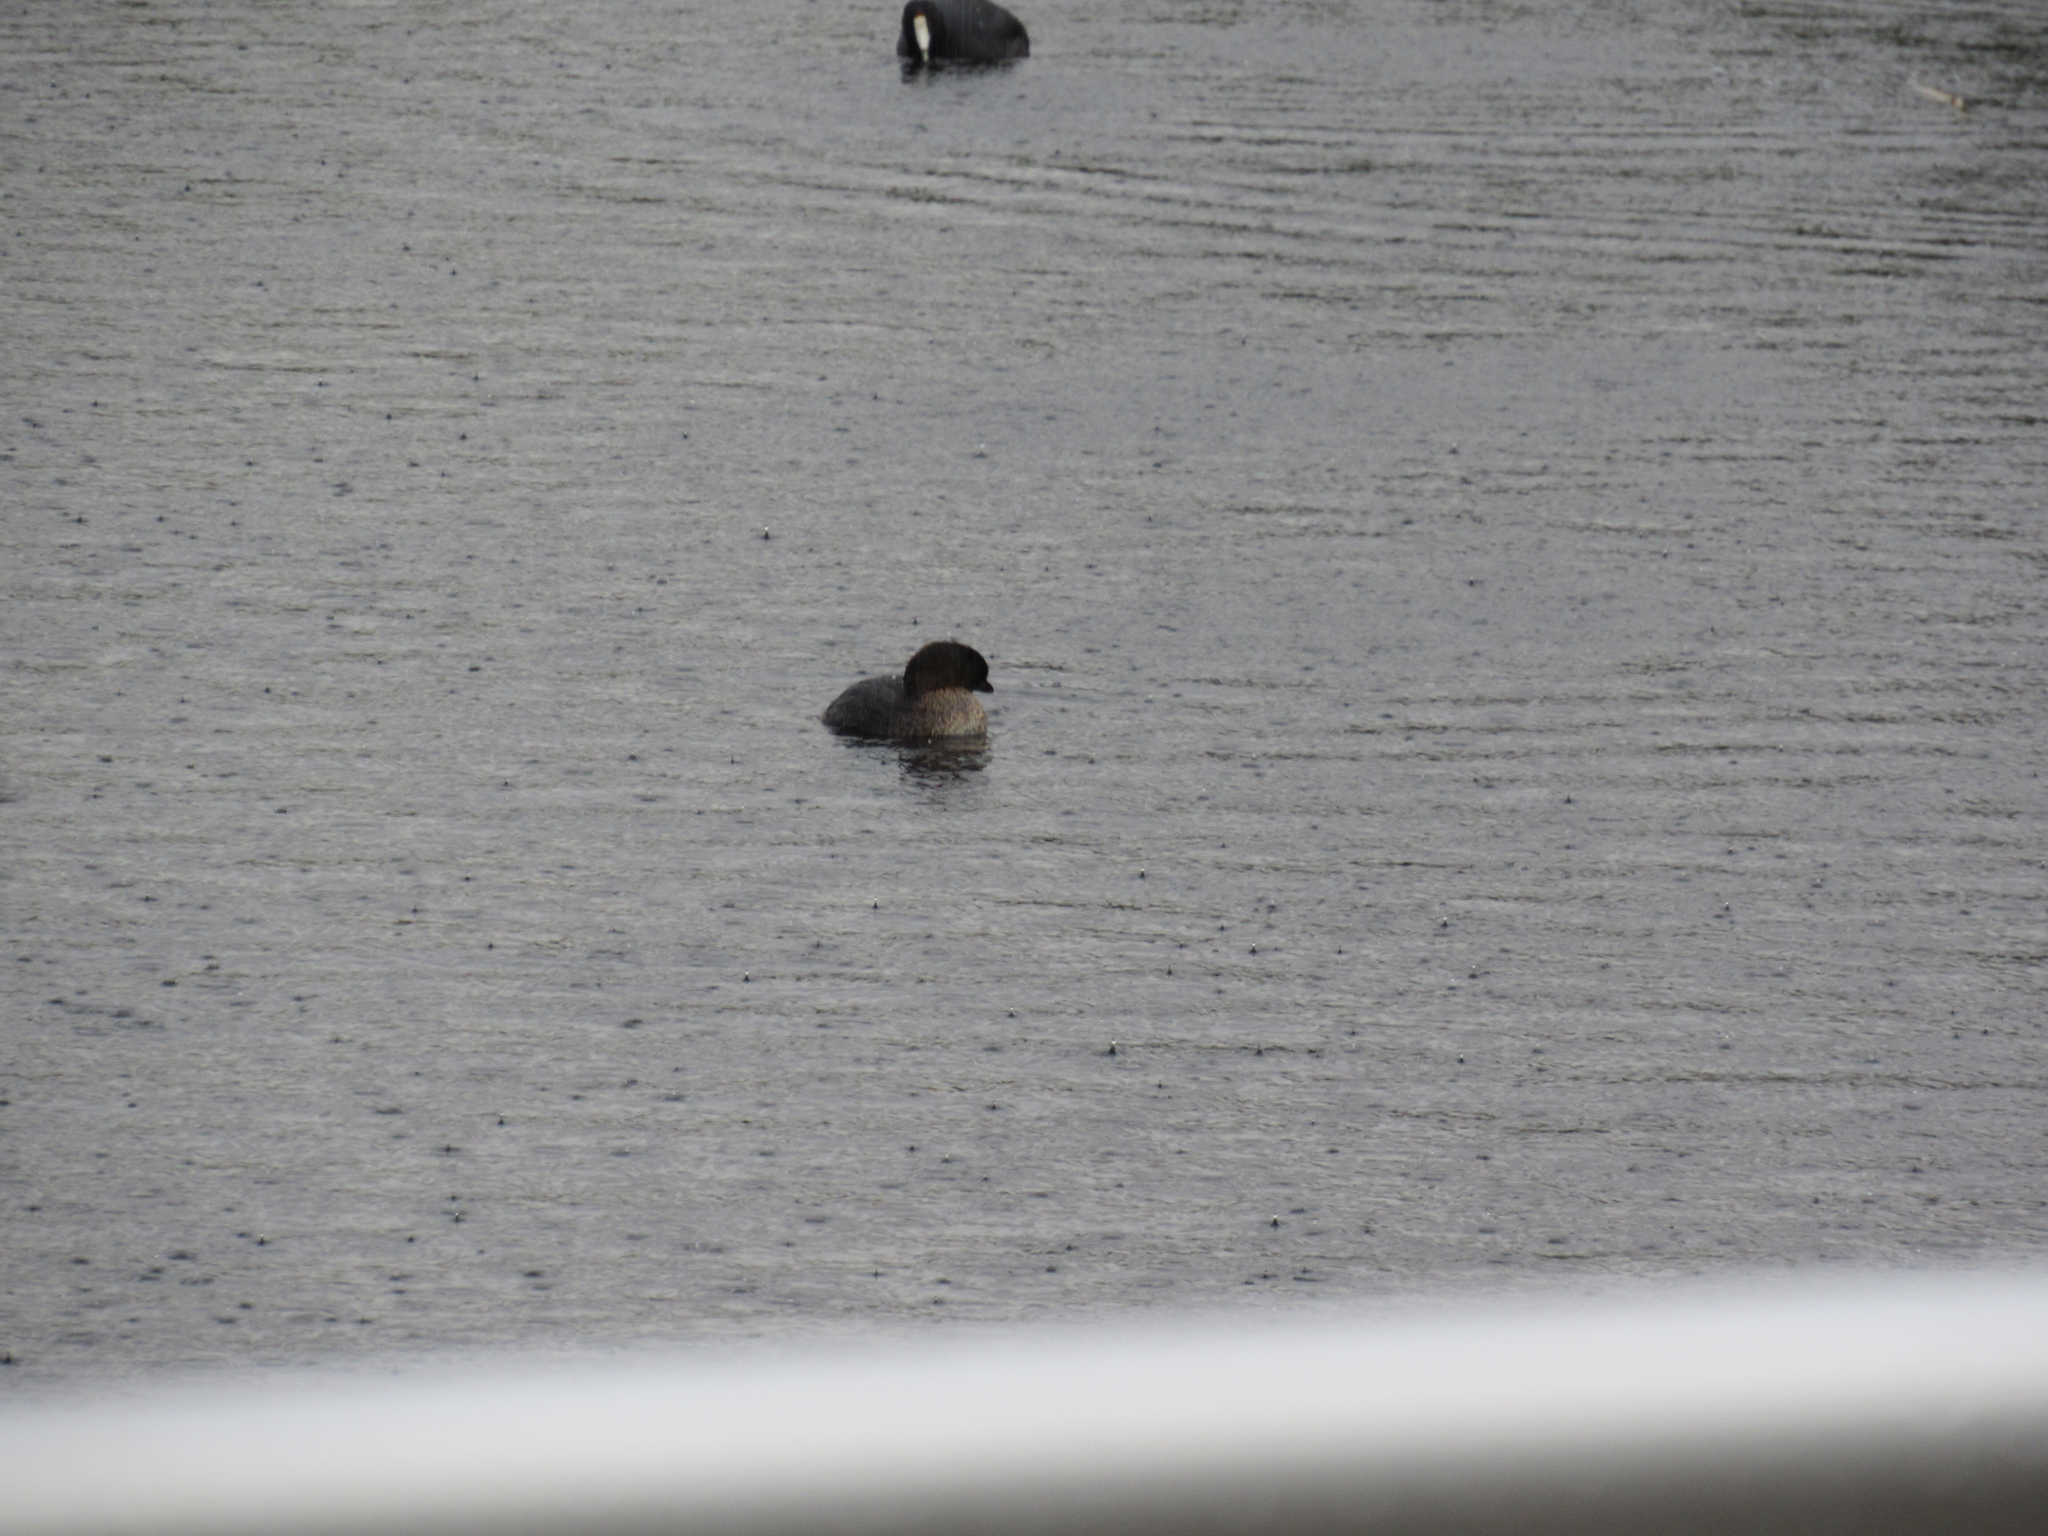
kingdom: Animalia
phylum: Chordata
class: Aves
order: Podicipediformes
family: Podicipedidae
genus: Podilymbus
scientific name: Podilymbus podiceps
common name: Pied-billed grebe
